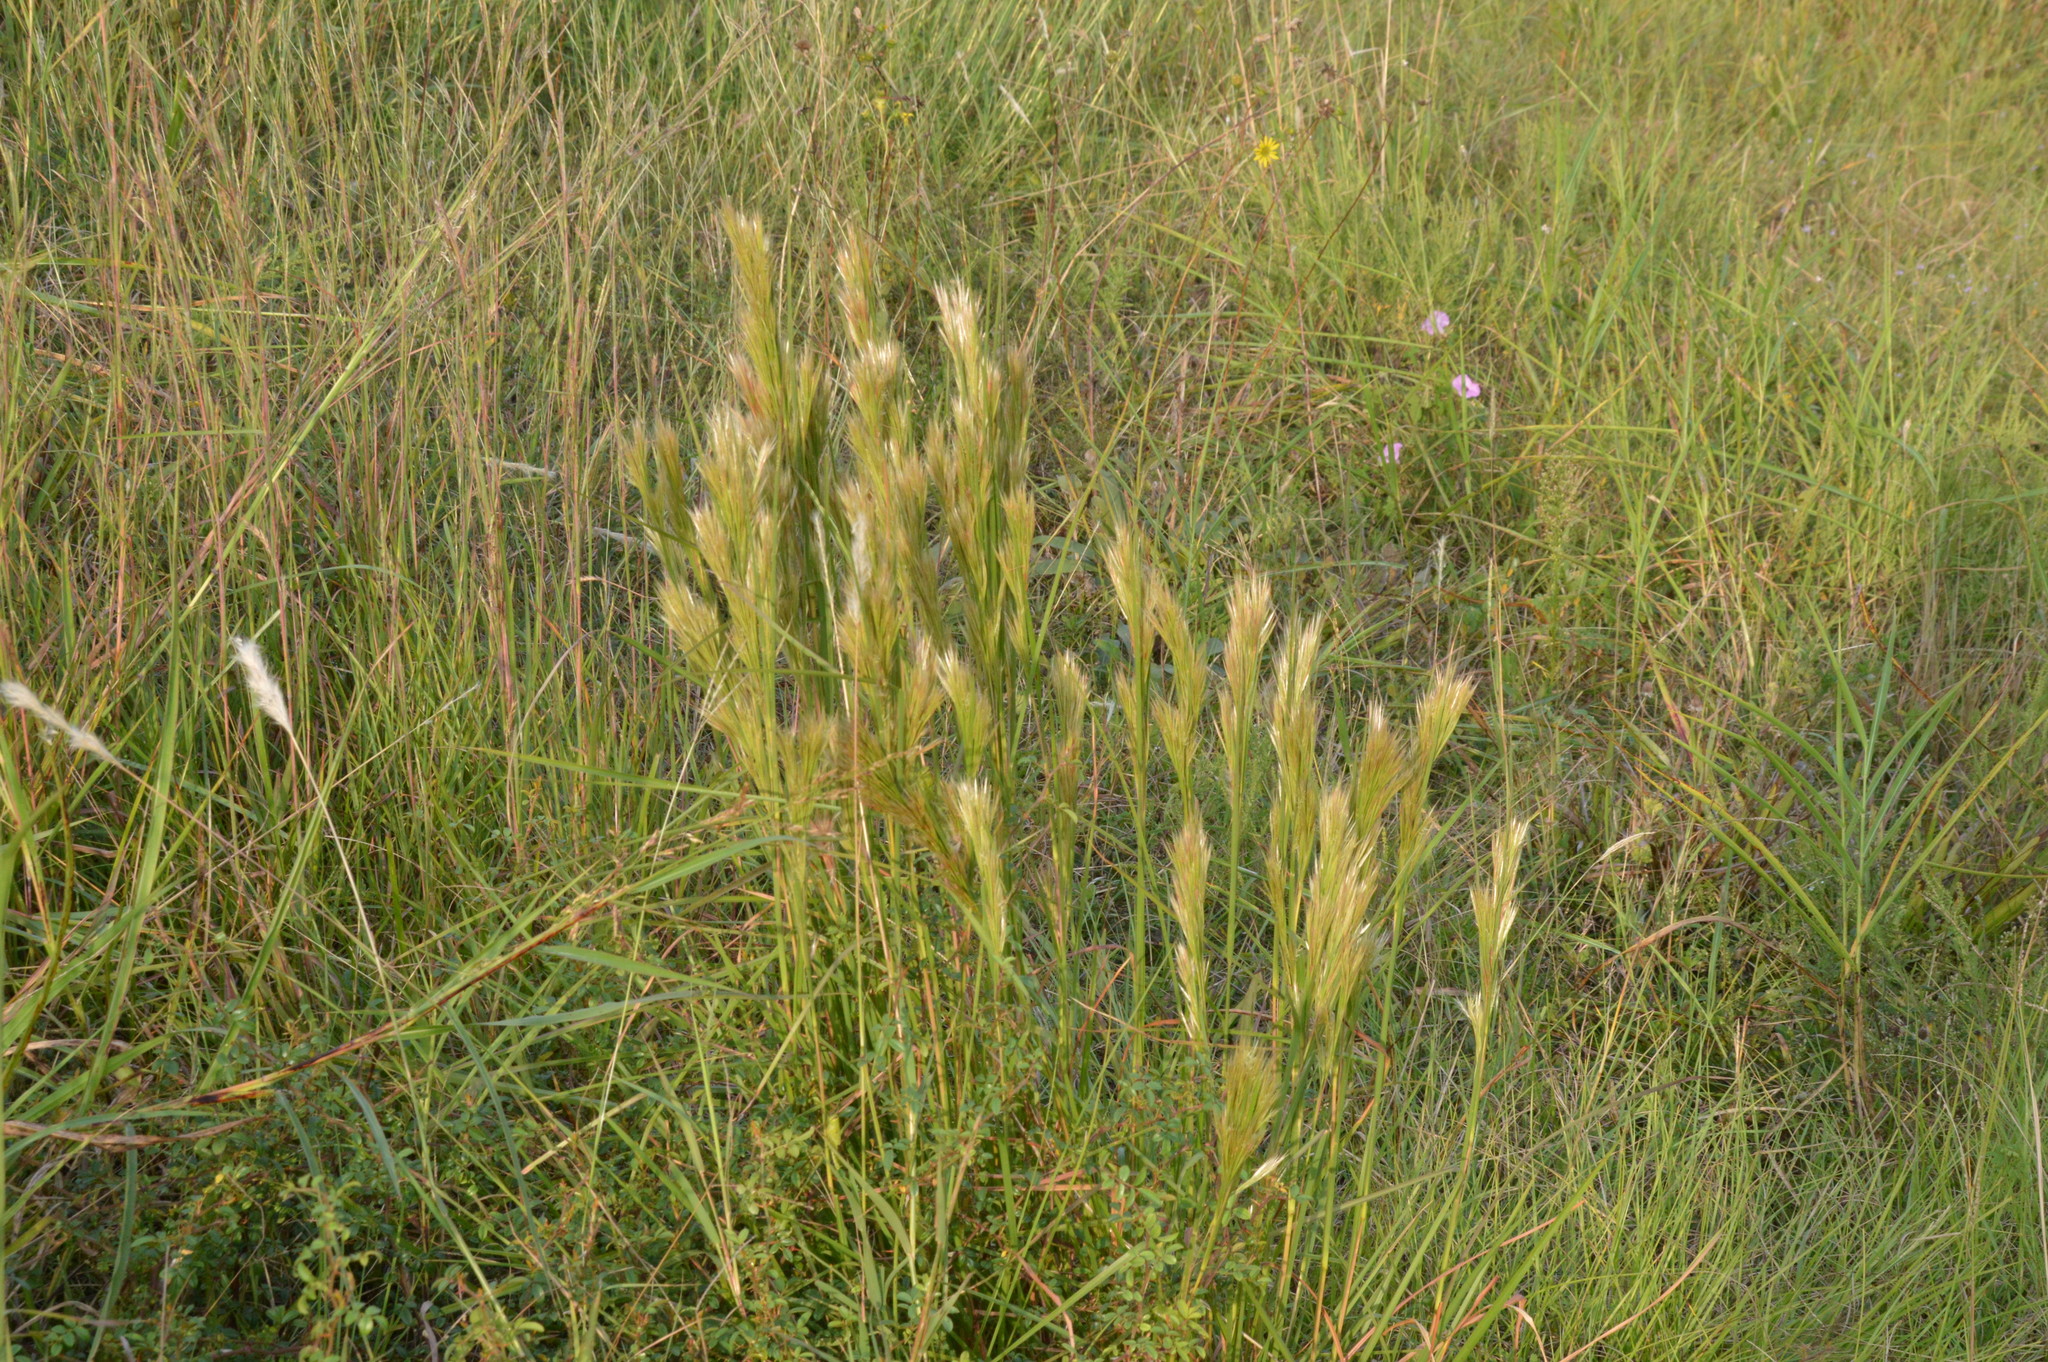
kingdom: Plantae
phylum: Tracheophyta
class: Liliopsida
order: Poales
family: Poaceae
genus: Andropogon
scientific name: Andropogon tenuispatheus
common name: Bushy bluestem
